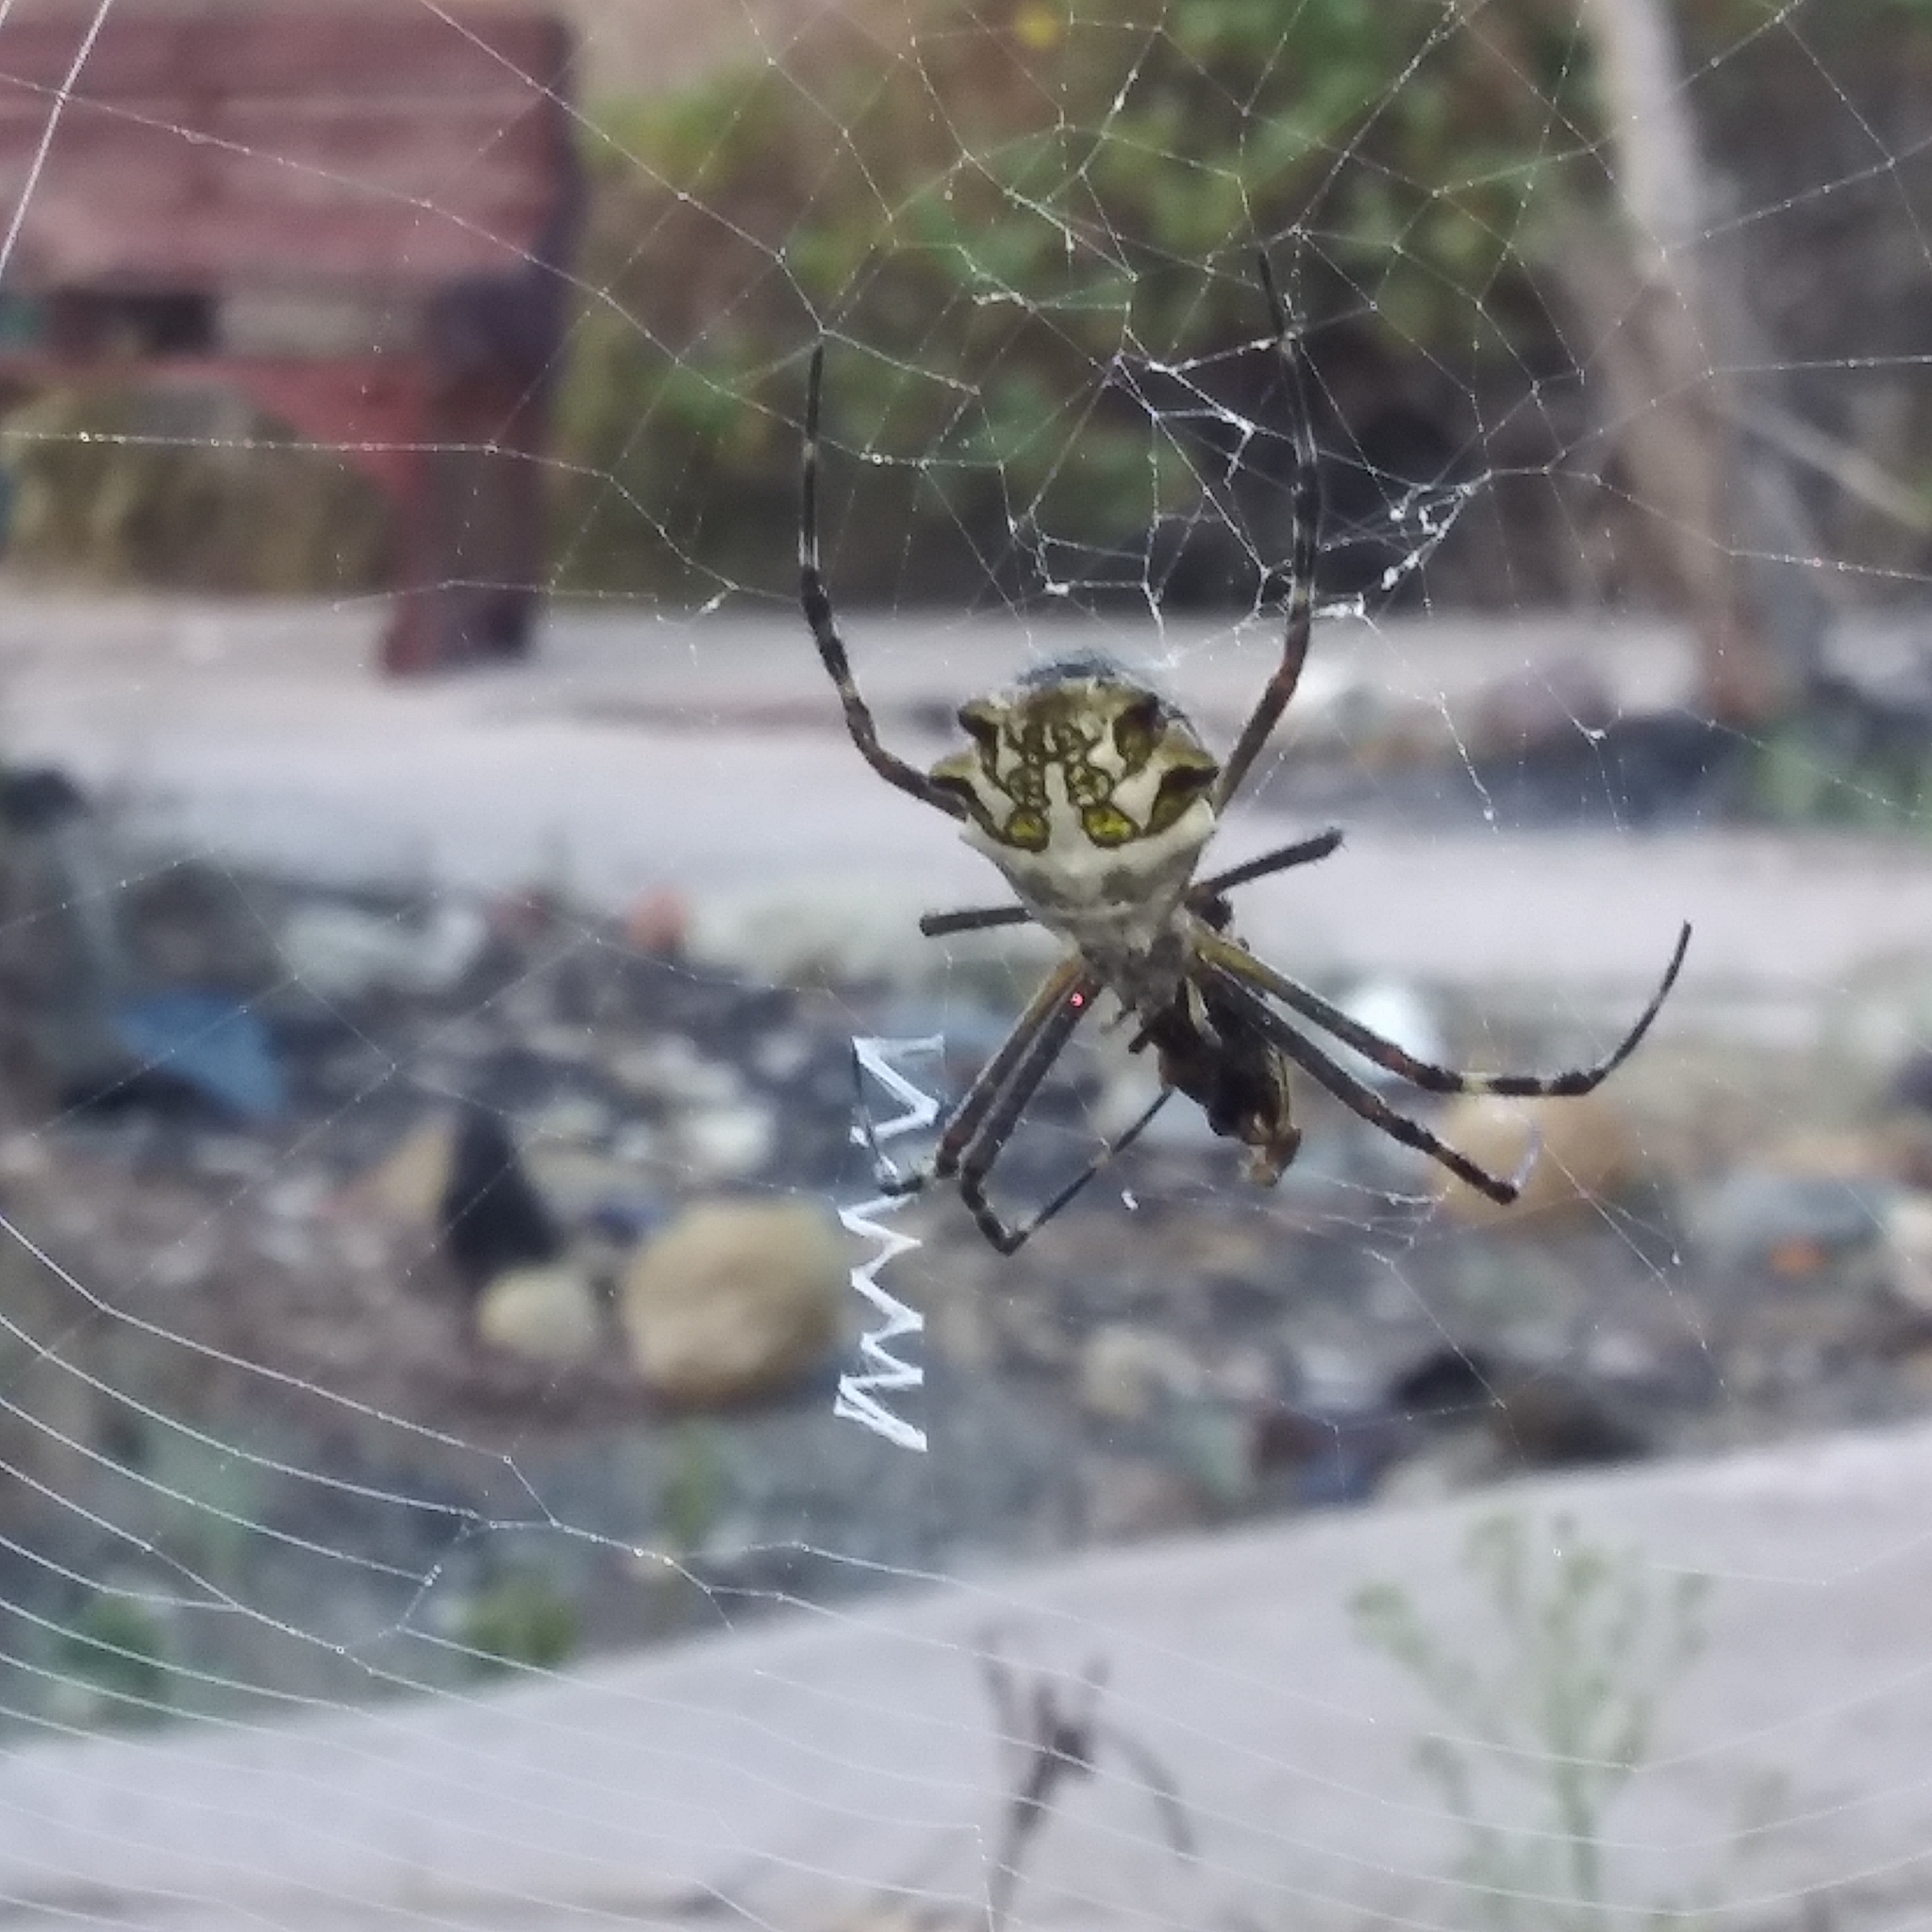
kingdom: Animalia
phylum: Arthropoda
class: Arachnida
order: Araneae
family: Araneidae
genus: Argiope
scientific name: Argiope argentata
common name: Orb weavers
